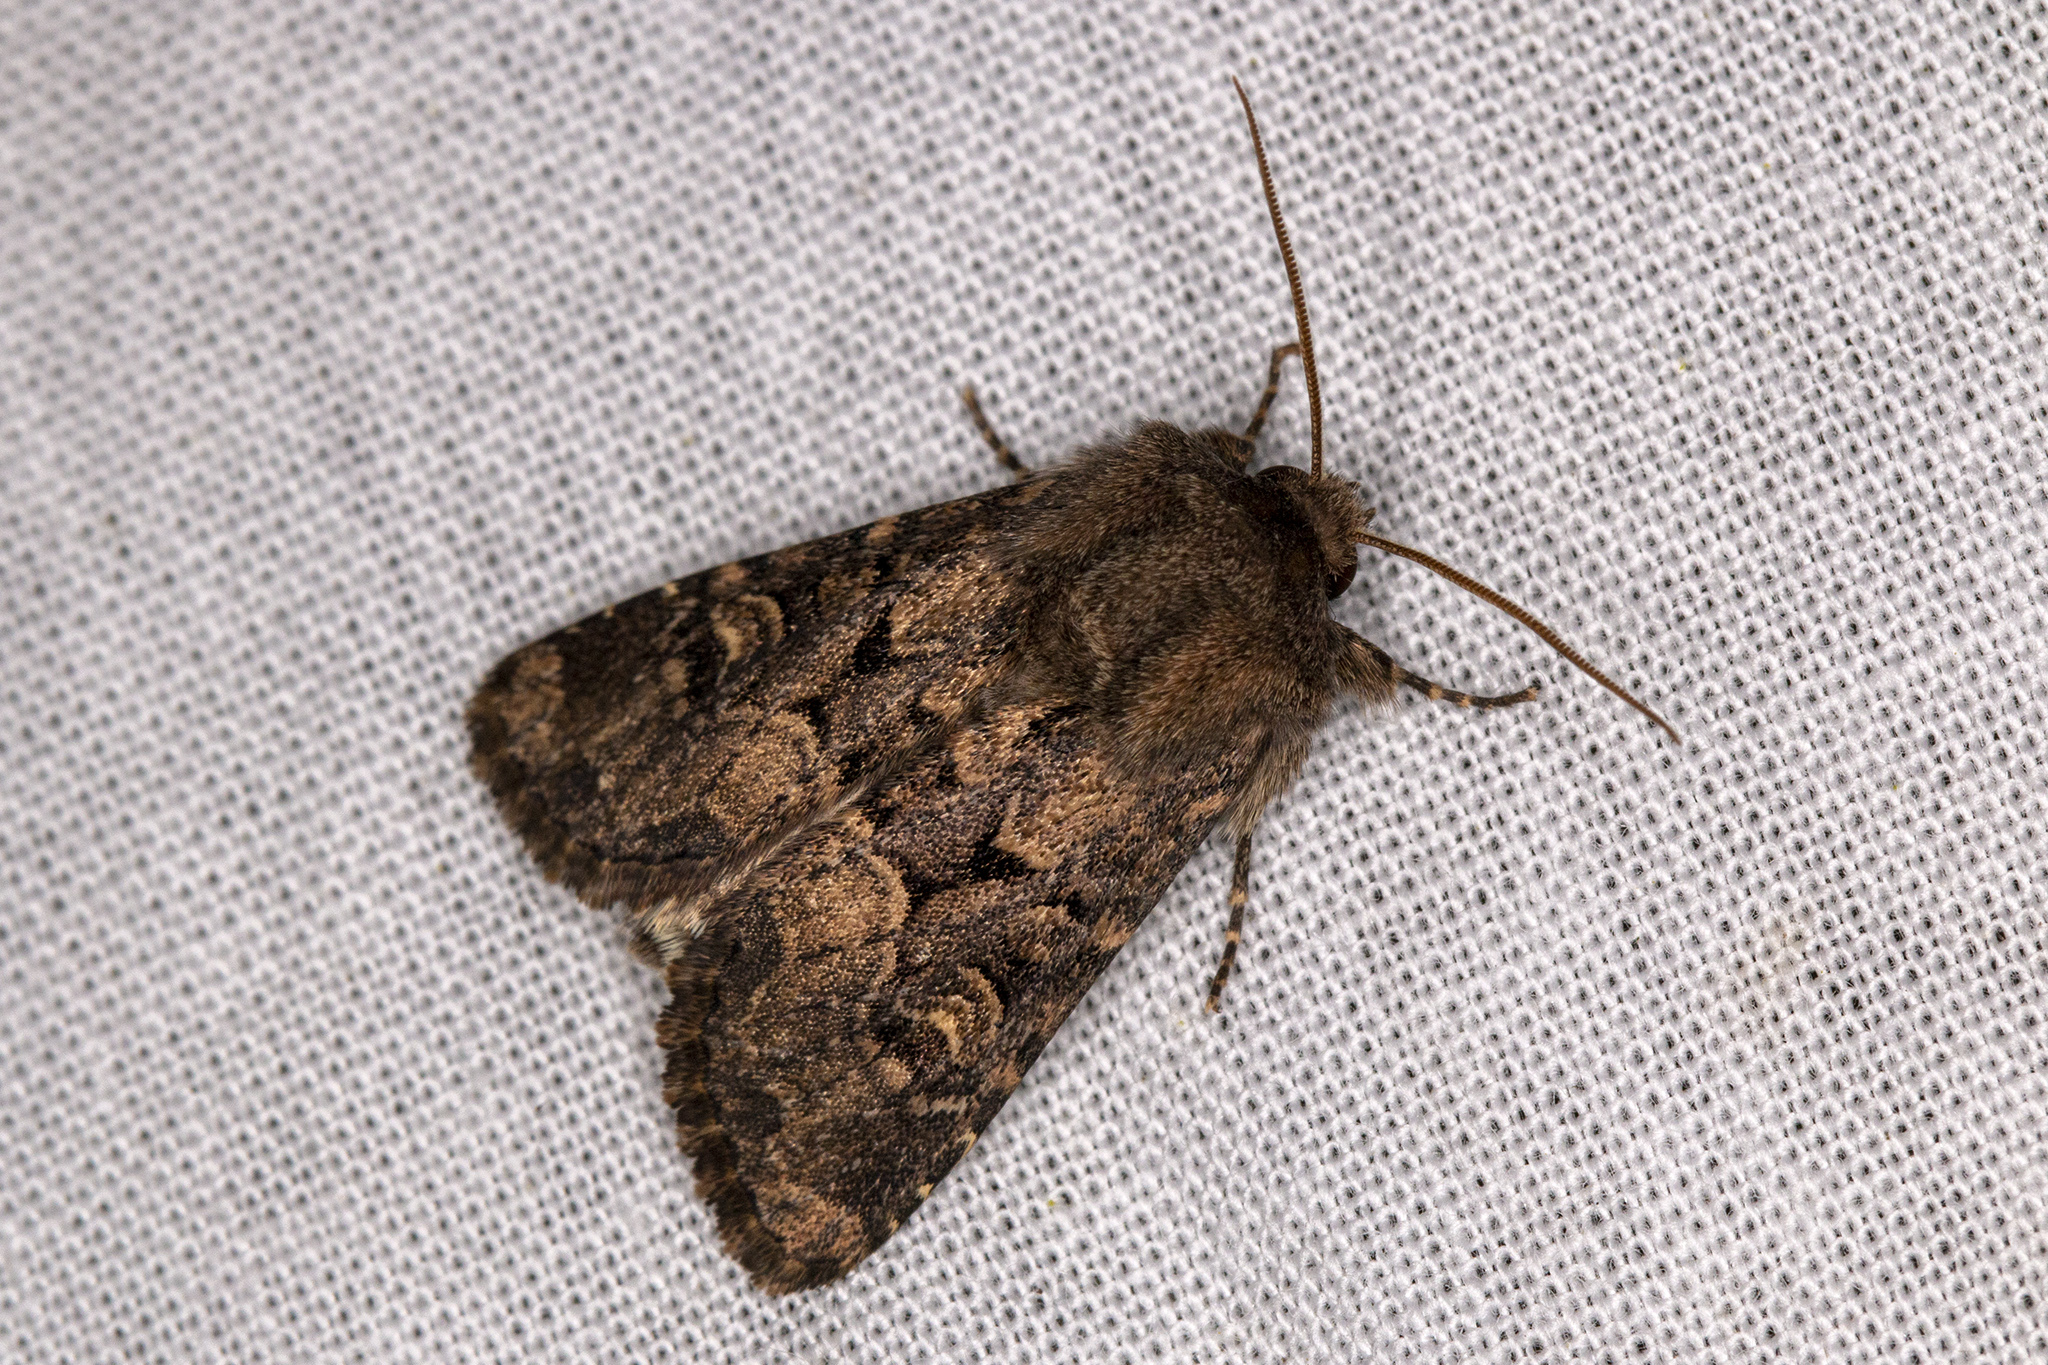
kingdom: Animalia
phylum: Arthropoda
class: Insecta
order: Lepidoptera
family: Noctuidae
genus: Luperina
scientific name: Luperina testacea
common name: Flounced rustic
